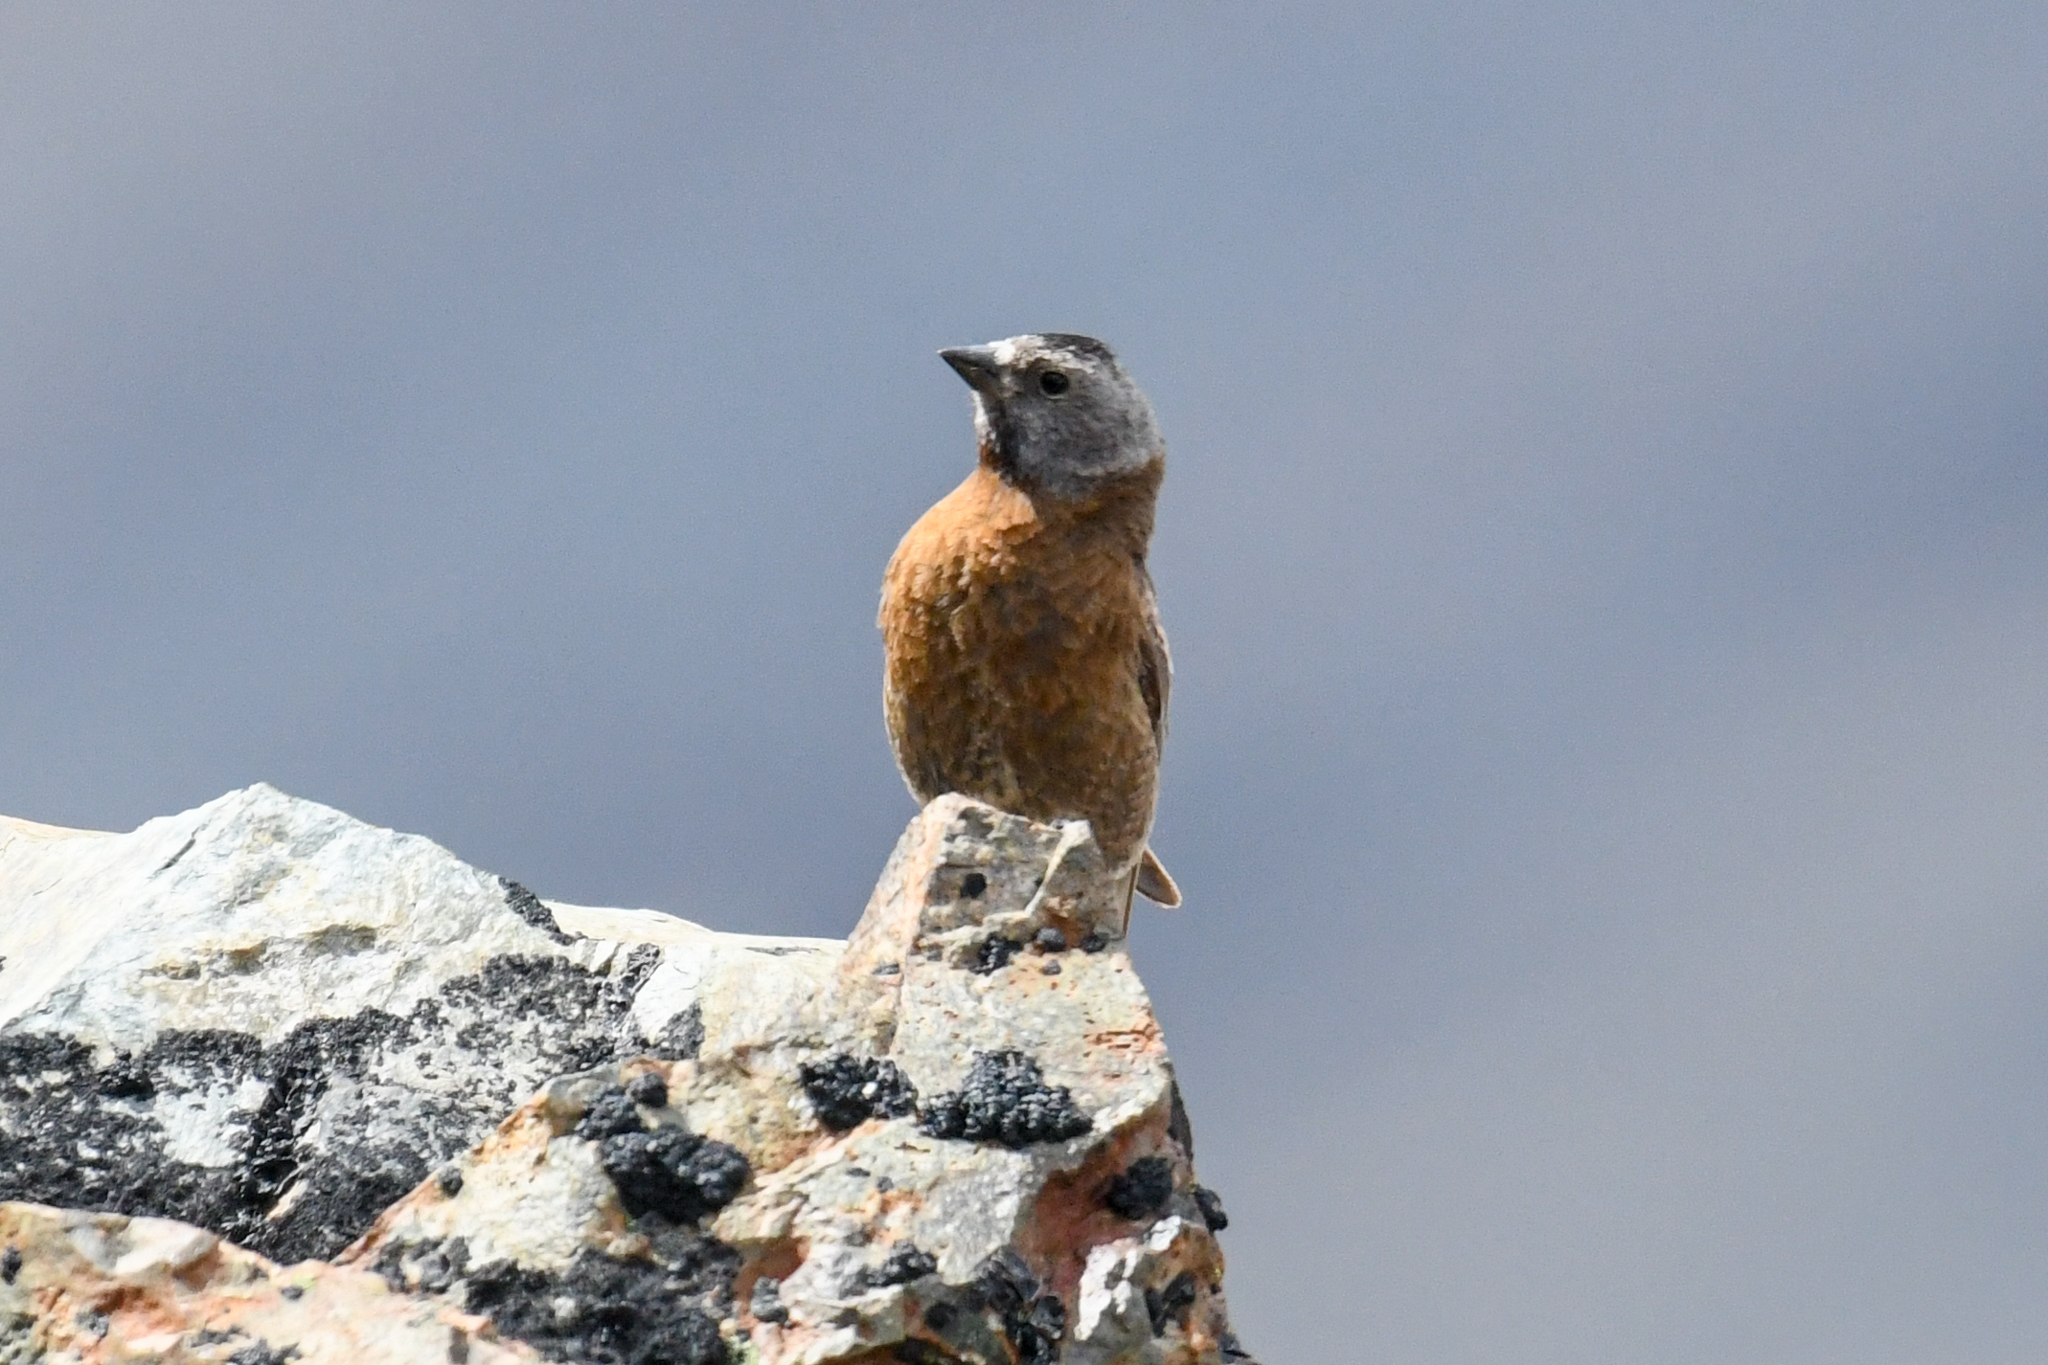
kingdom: Animalia
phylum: Chordata
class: Aves
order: Passeriformes
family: Fringillidae
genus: Leucosticte
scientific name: Leucosticte tephrocotis
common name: Gray-crowned rosy-finch
